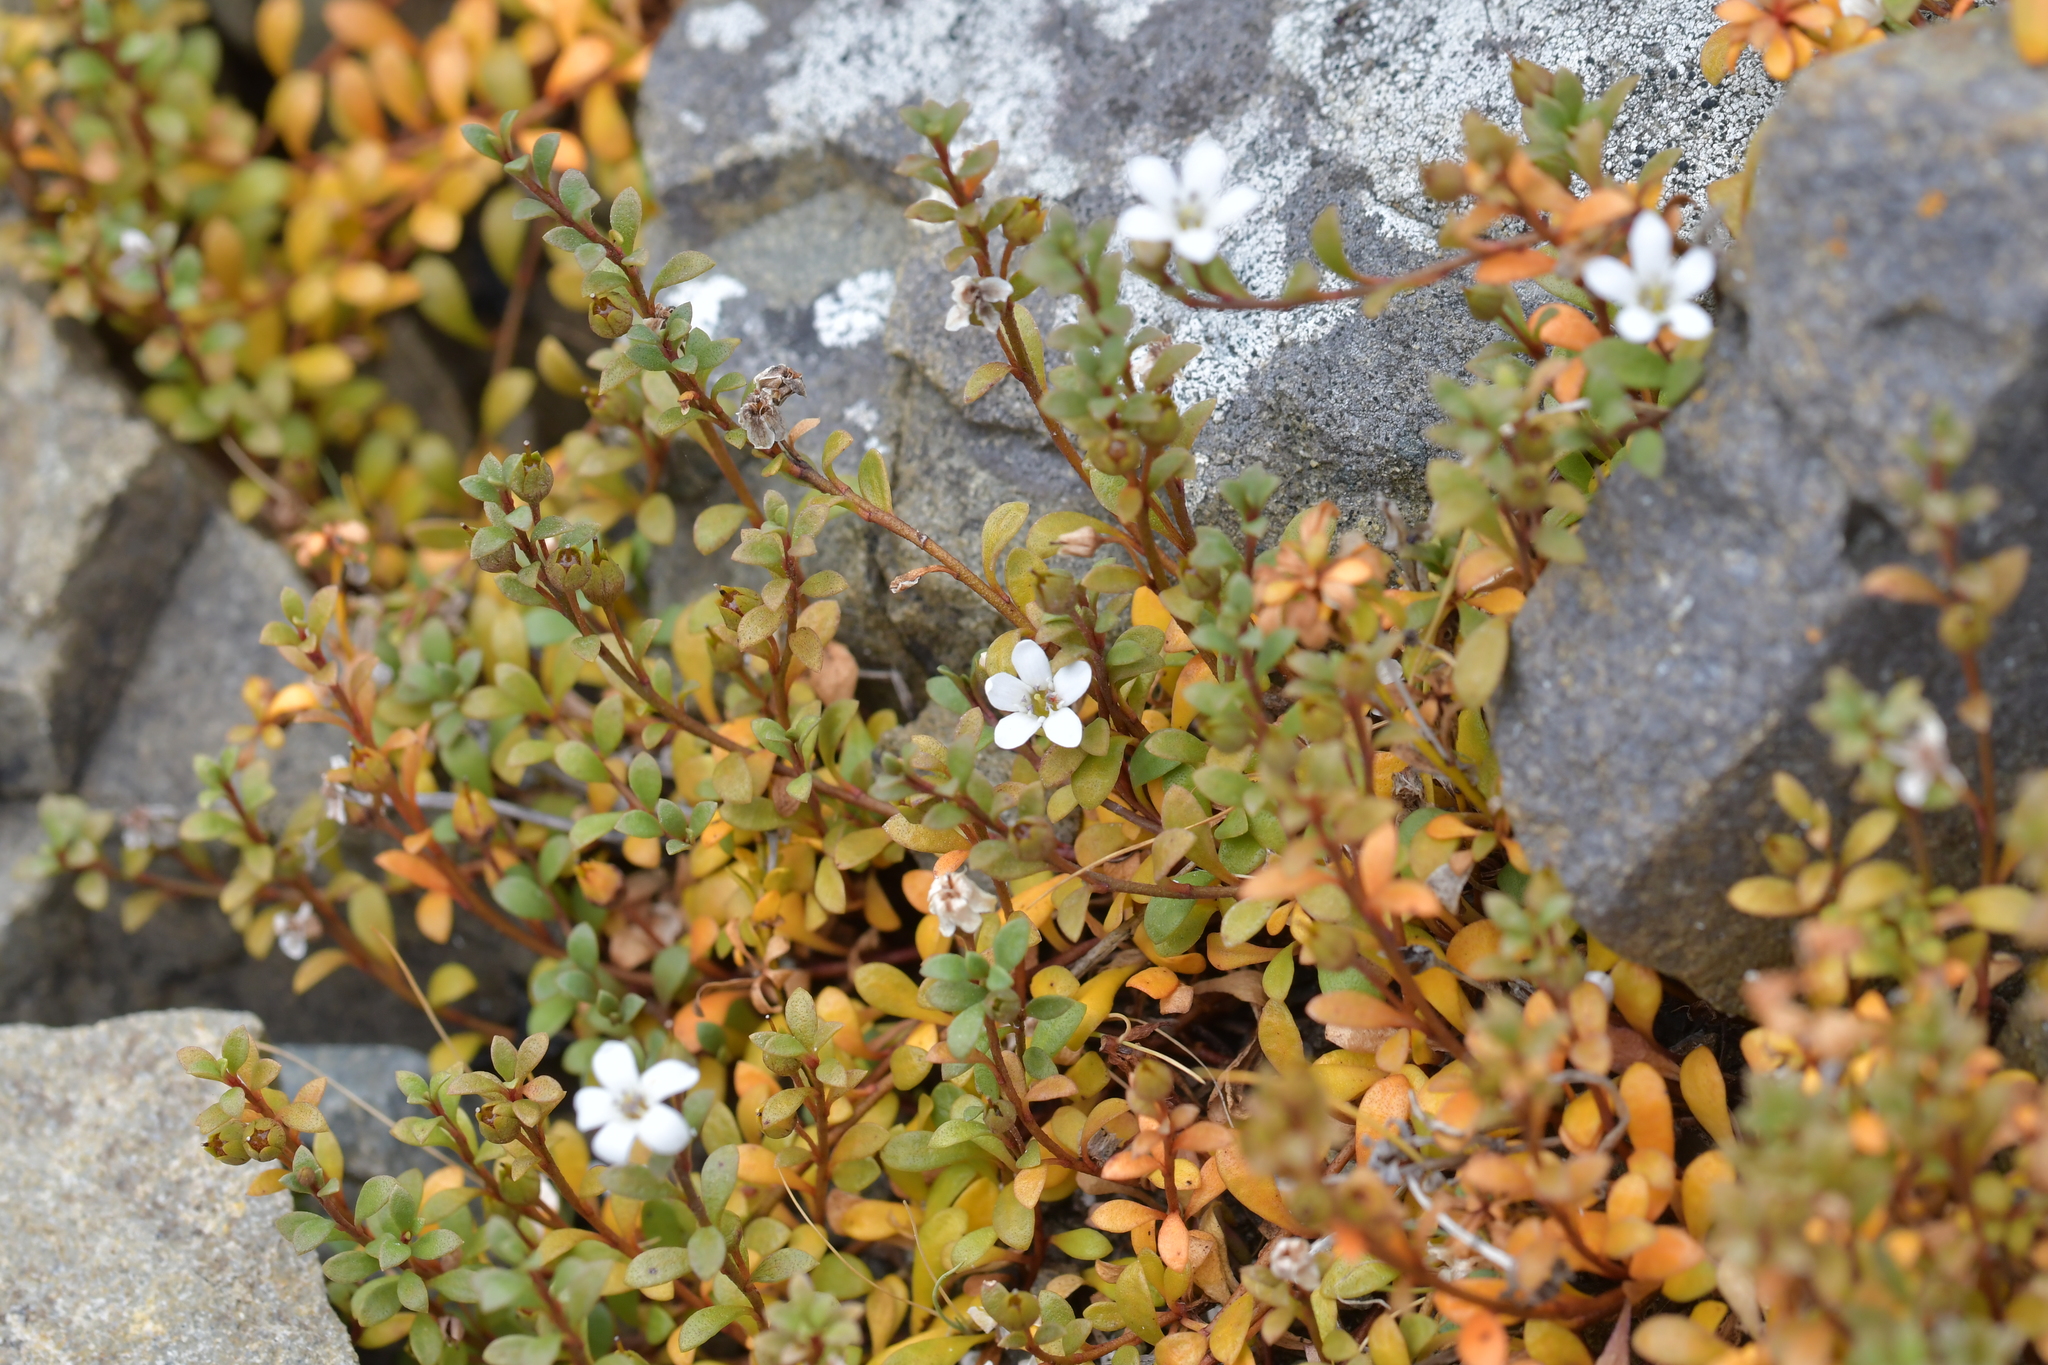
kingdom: Plantae
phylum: Tracheophyta
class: Magnoliopsida
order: Ericales
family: Primulaceae
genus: Samolus
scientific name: Samolus repens
